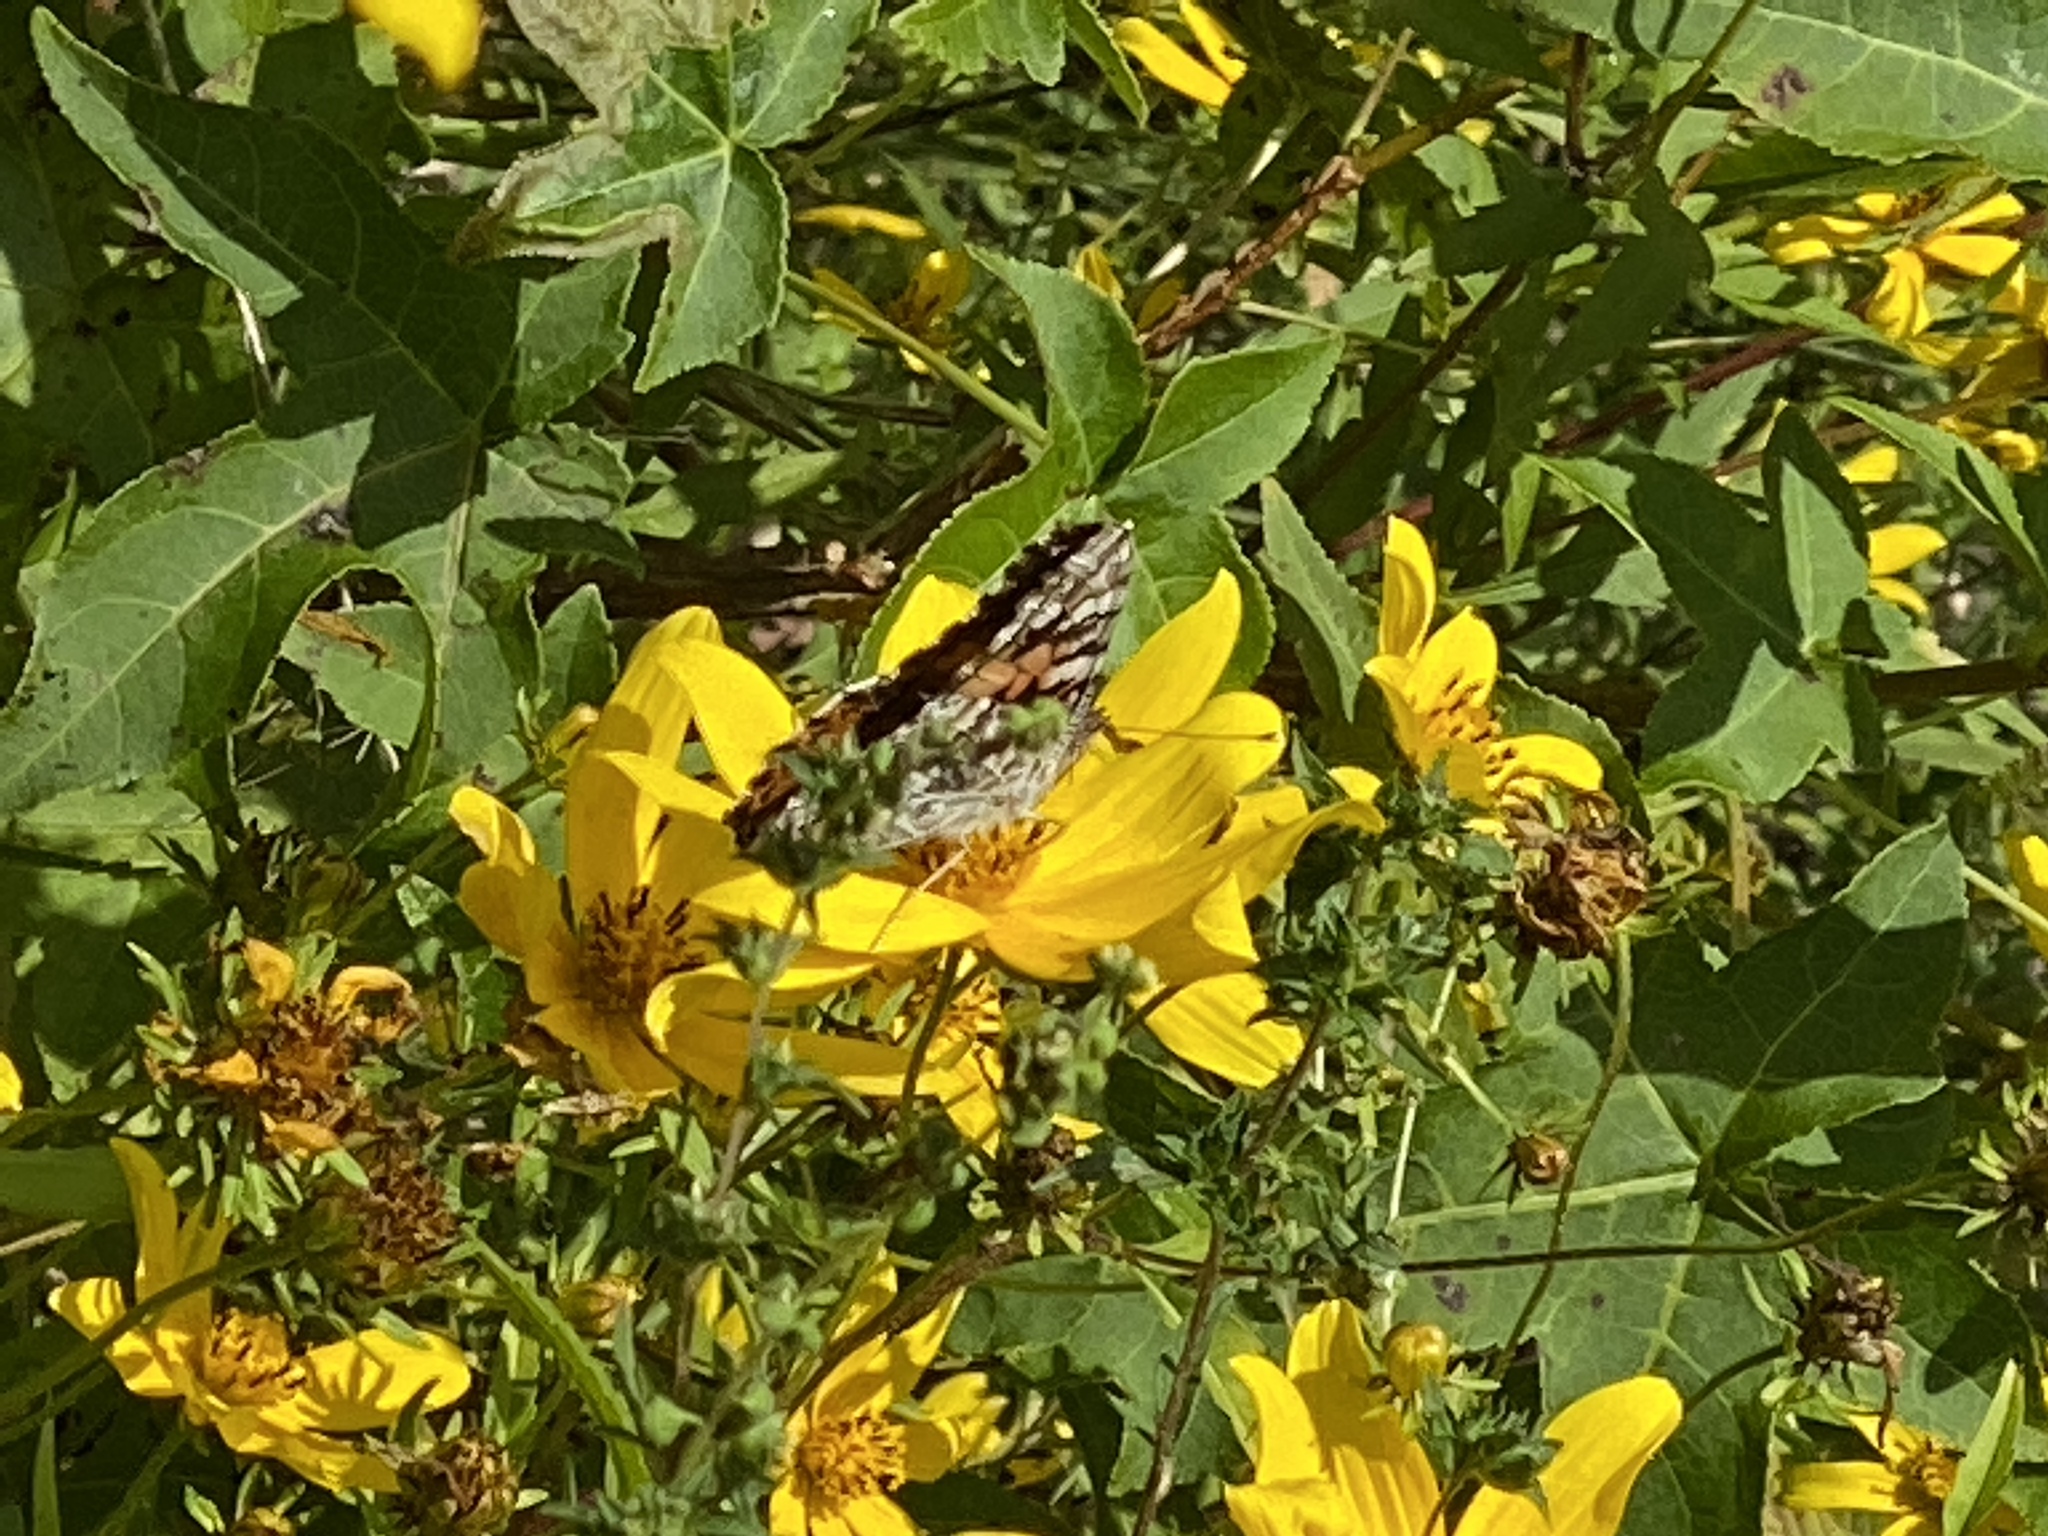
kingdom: Animalia
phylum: Arthropoda
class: Insecta
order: Lepidoptera
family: Nymphalidae
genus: Vanessa
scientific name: Vanessa cardui
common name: Painted lady
